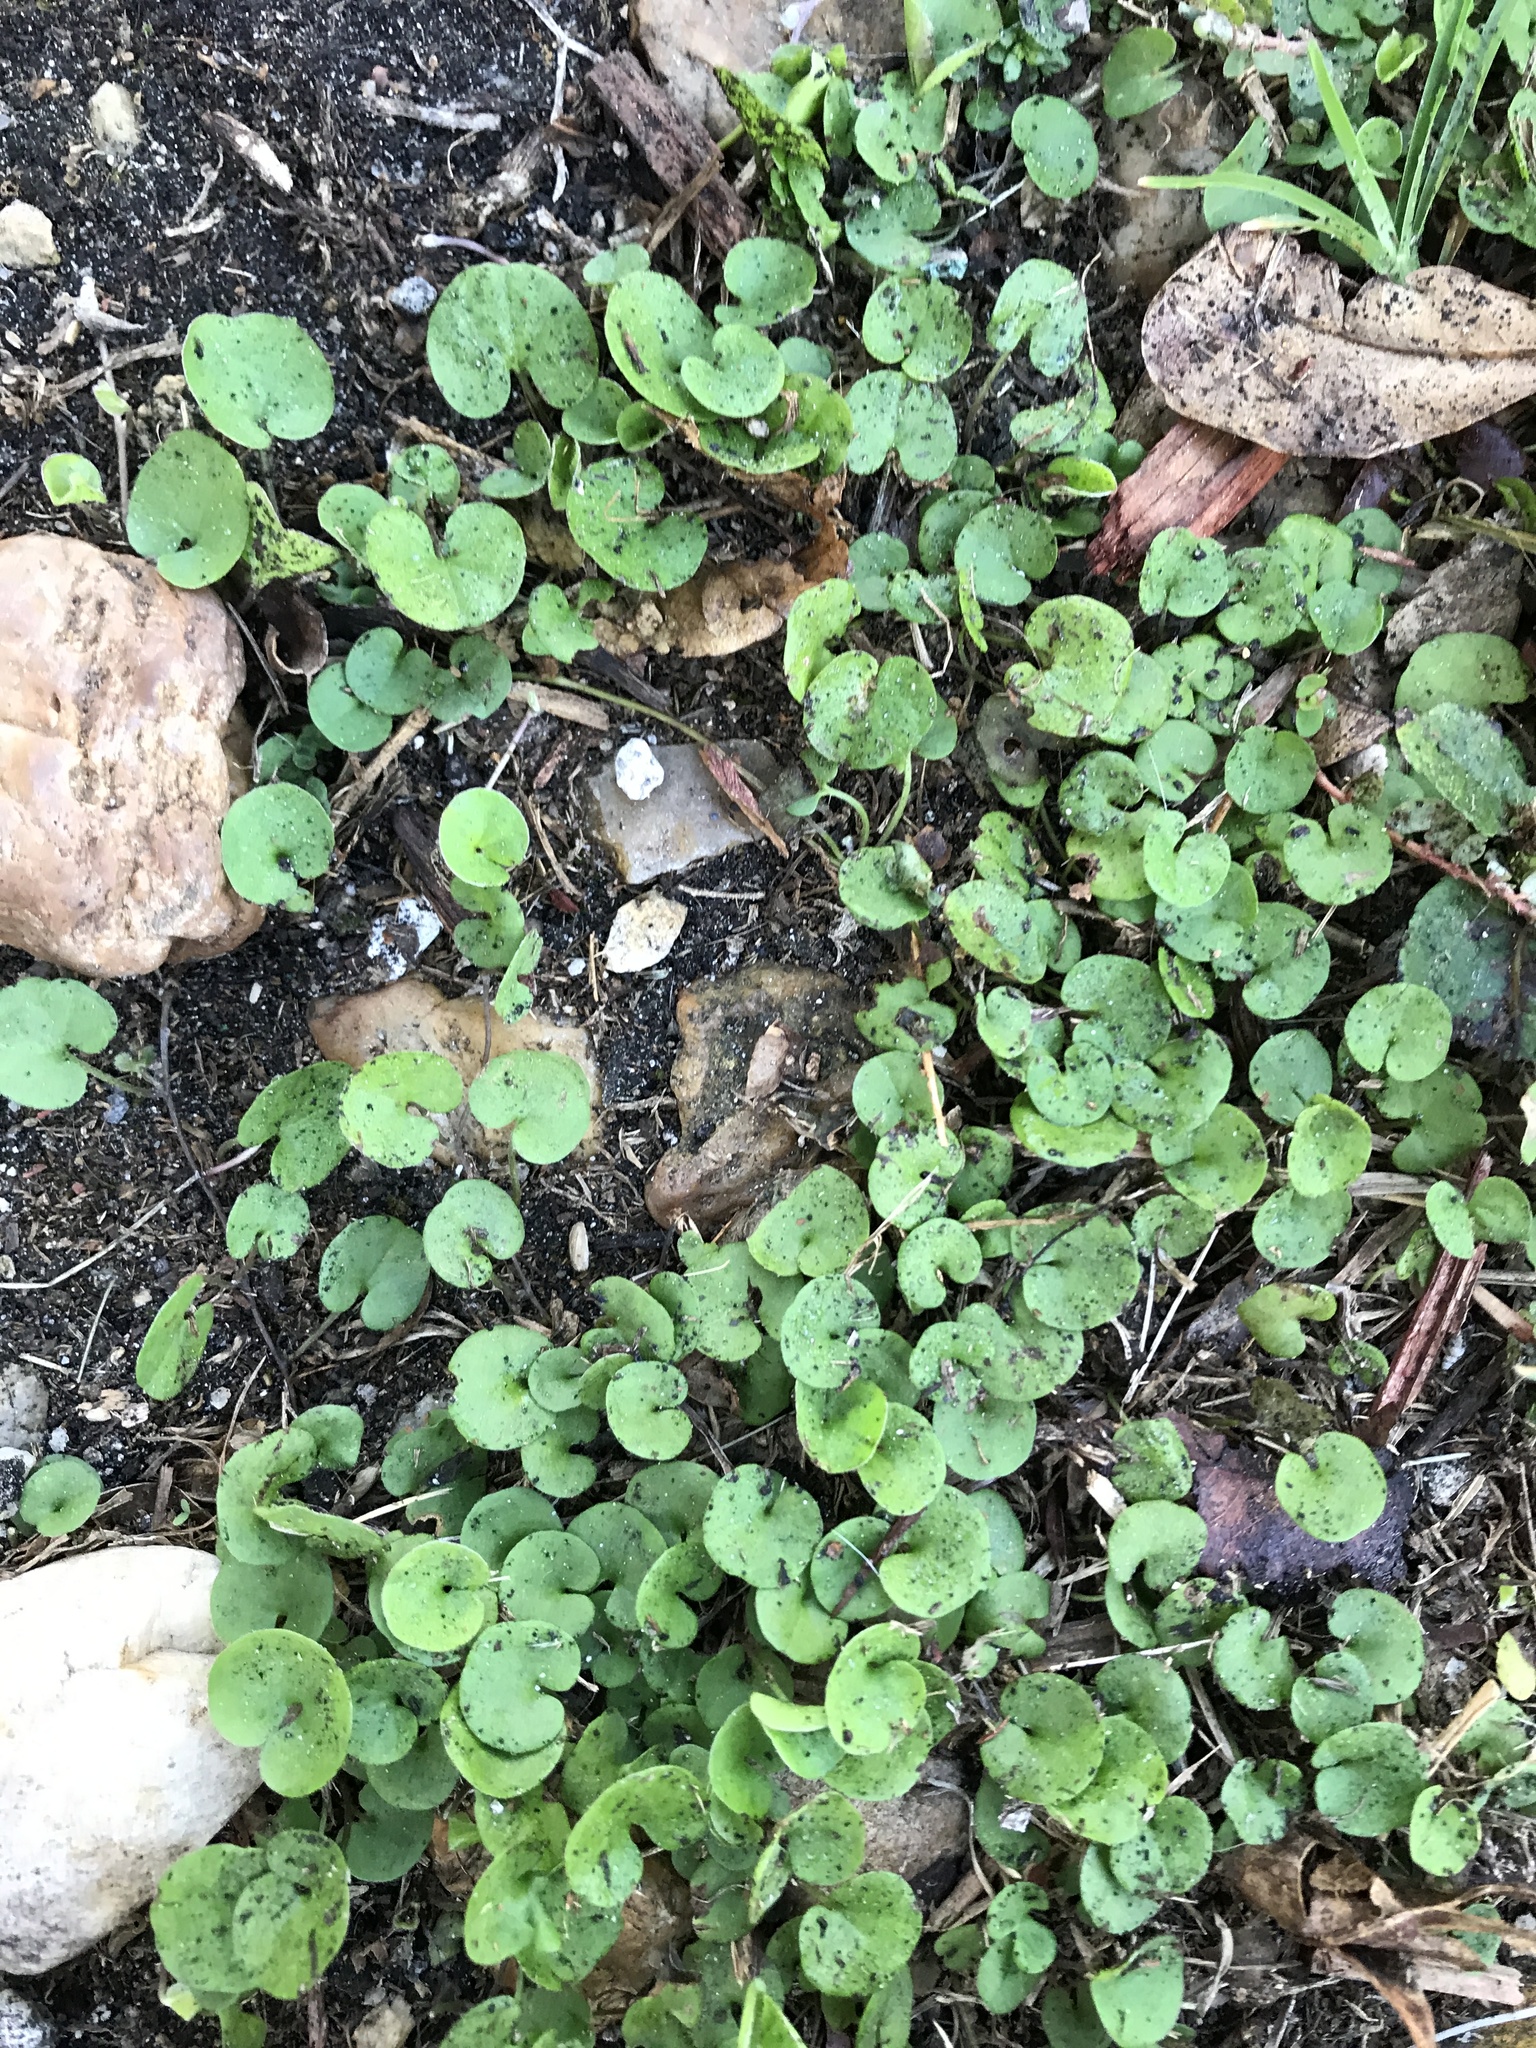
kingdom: Plantae
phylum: Tracheophyta
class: Magnoliopsida
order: Solanales
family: Convolvulaceae
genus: Dichondra
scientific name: Dichondra carolinensis
